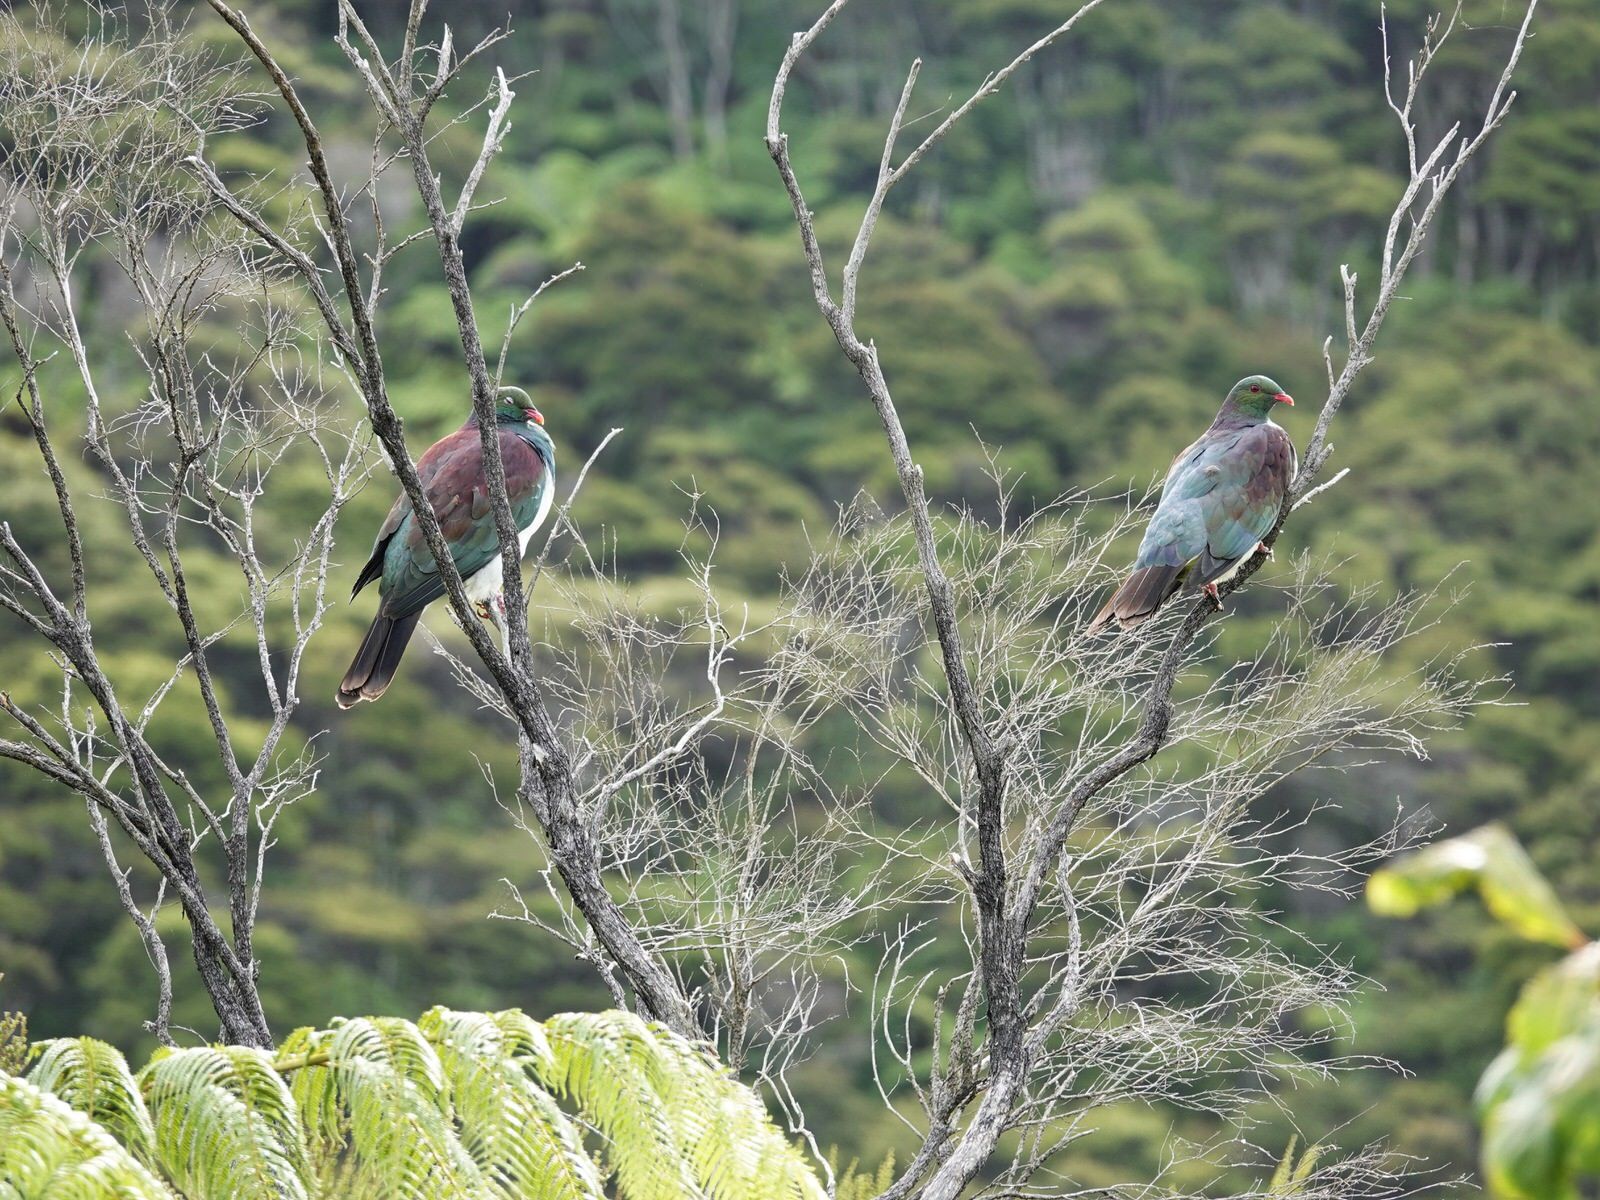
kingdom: Animalia
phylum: Chordata
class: Aves
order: Columbiformes
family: Columbidae
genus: Hemiphaga
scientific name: Hemiphaga novaeseelandiae
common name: New zealand pigeon
